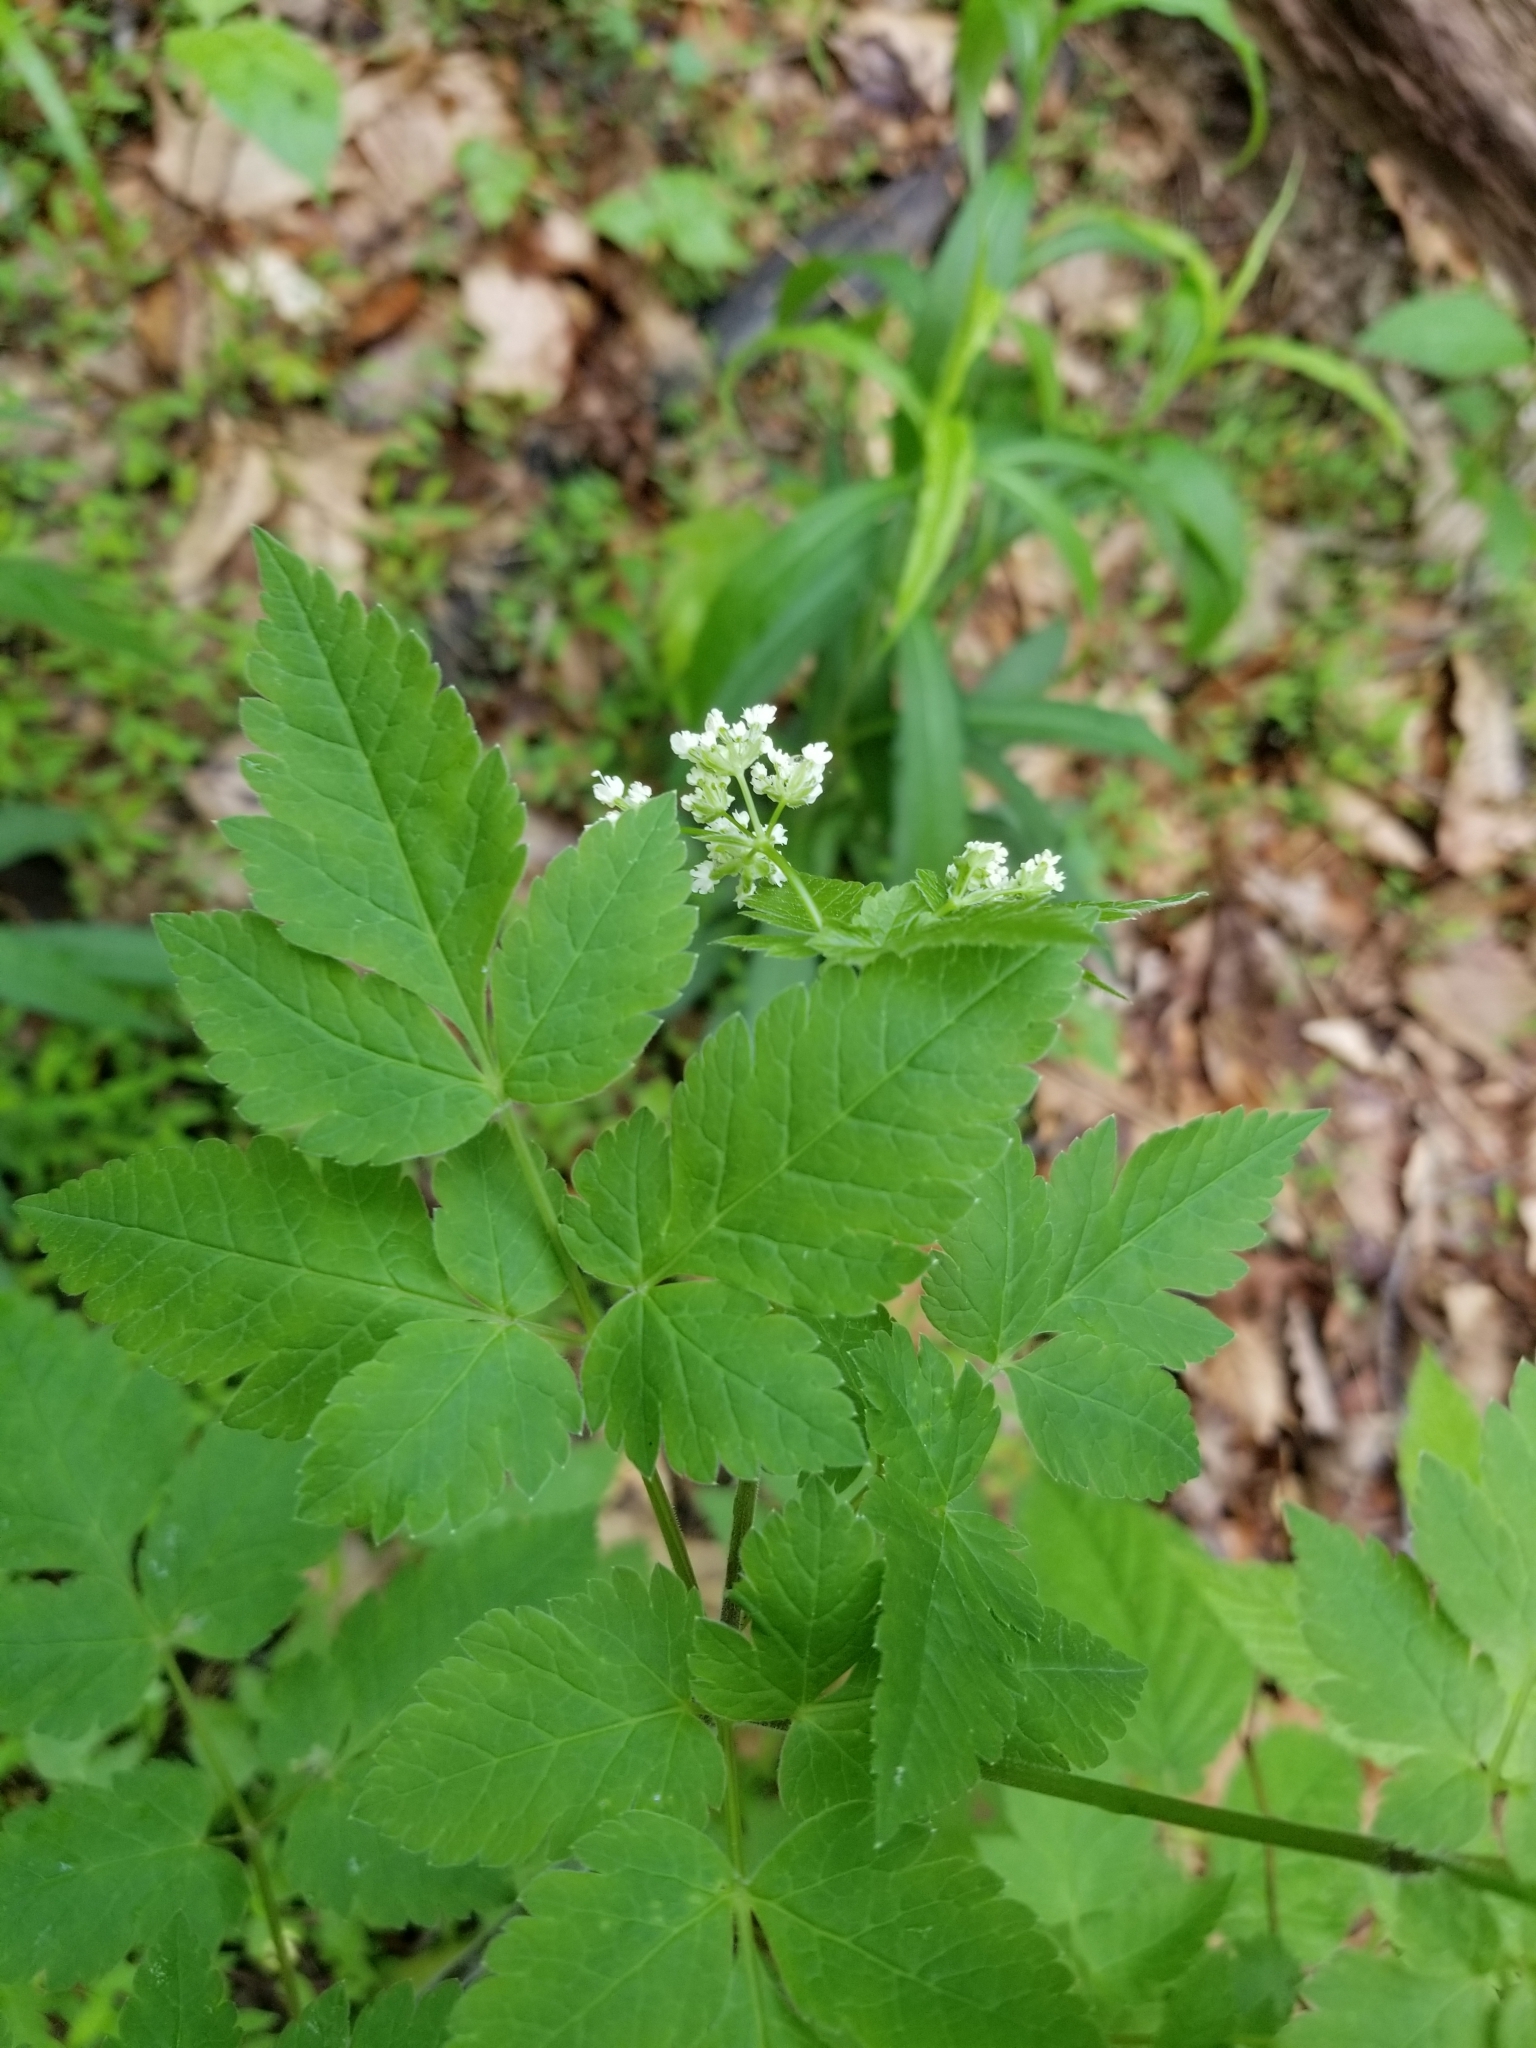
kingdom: Plantae
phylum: Tracheophyta
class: Magnoliopsida
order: Apiales
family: Apiaceae
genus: Osmorhiza
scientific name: Osmorhiza longistylis
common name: Smooth sweet cicely
